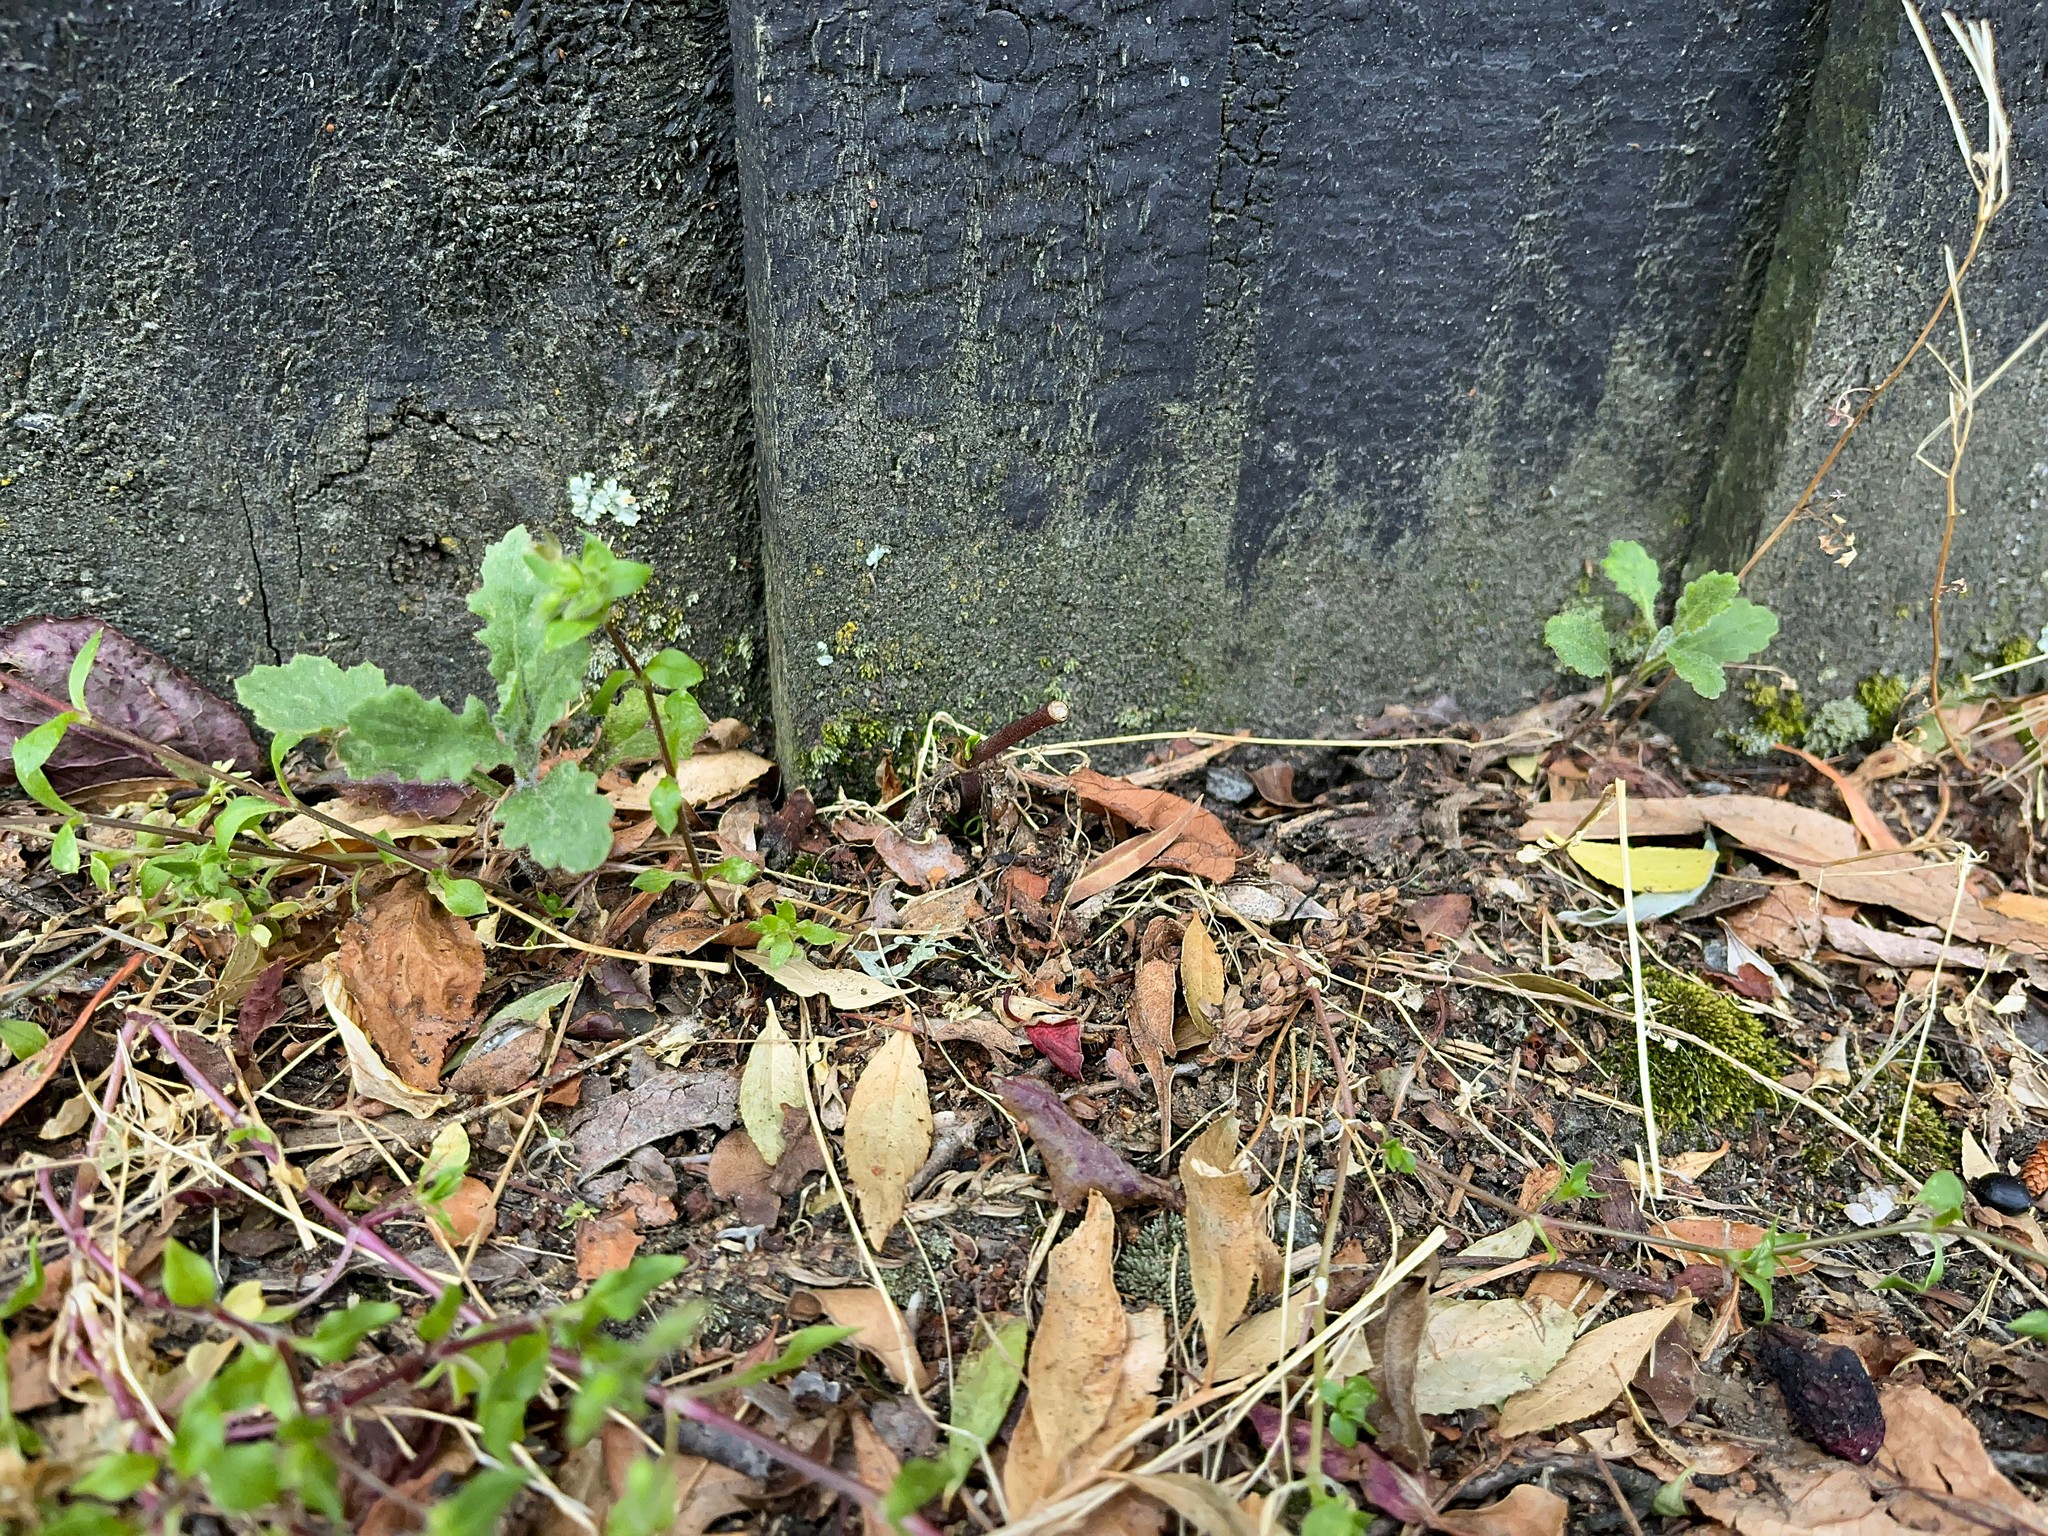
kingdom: Plantae
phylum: Tracheophyta
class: Magnoliopsida
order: Asterales
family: Asteraceae
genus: Senecio
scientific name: Senecio glomeratus
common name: Cutleaf burnweed
